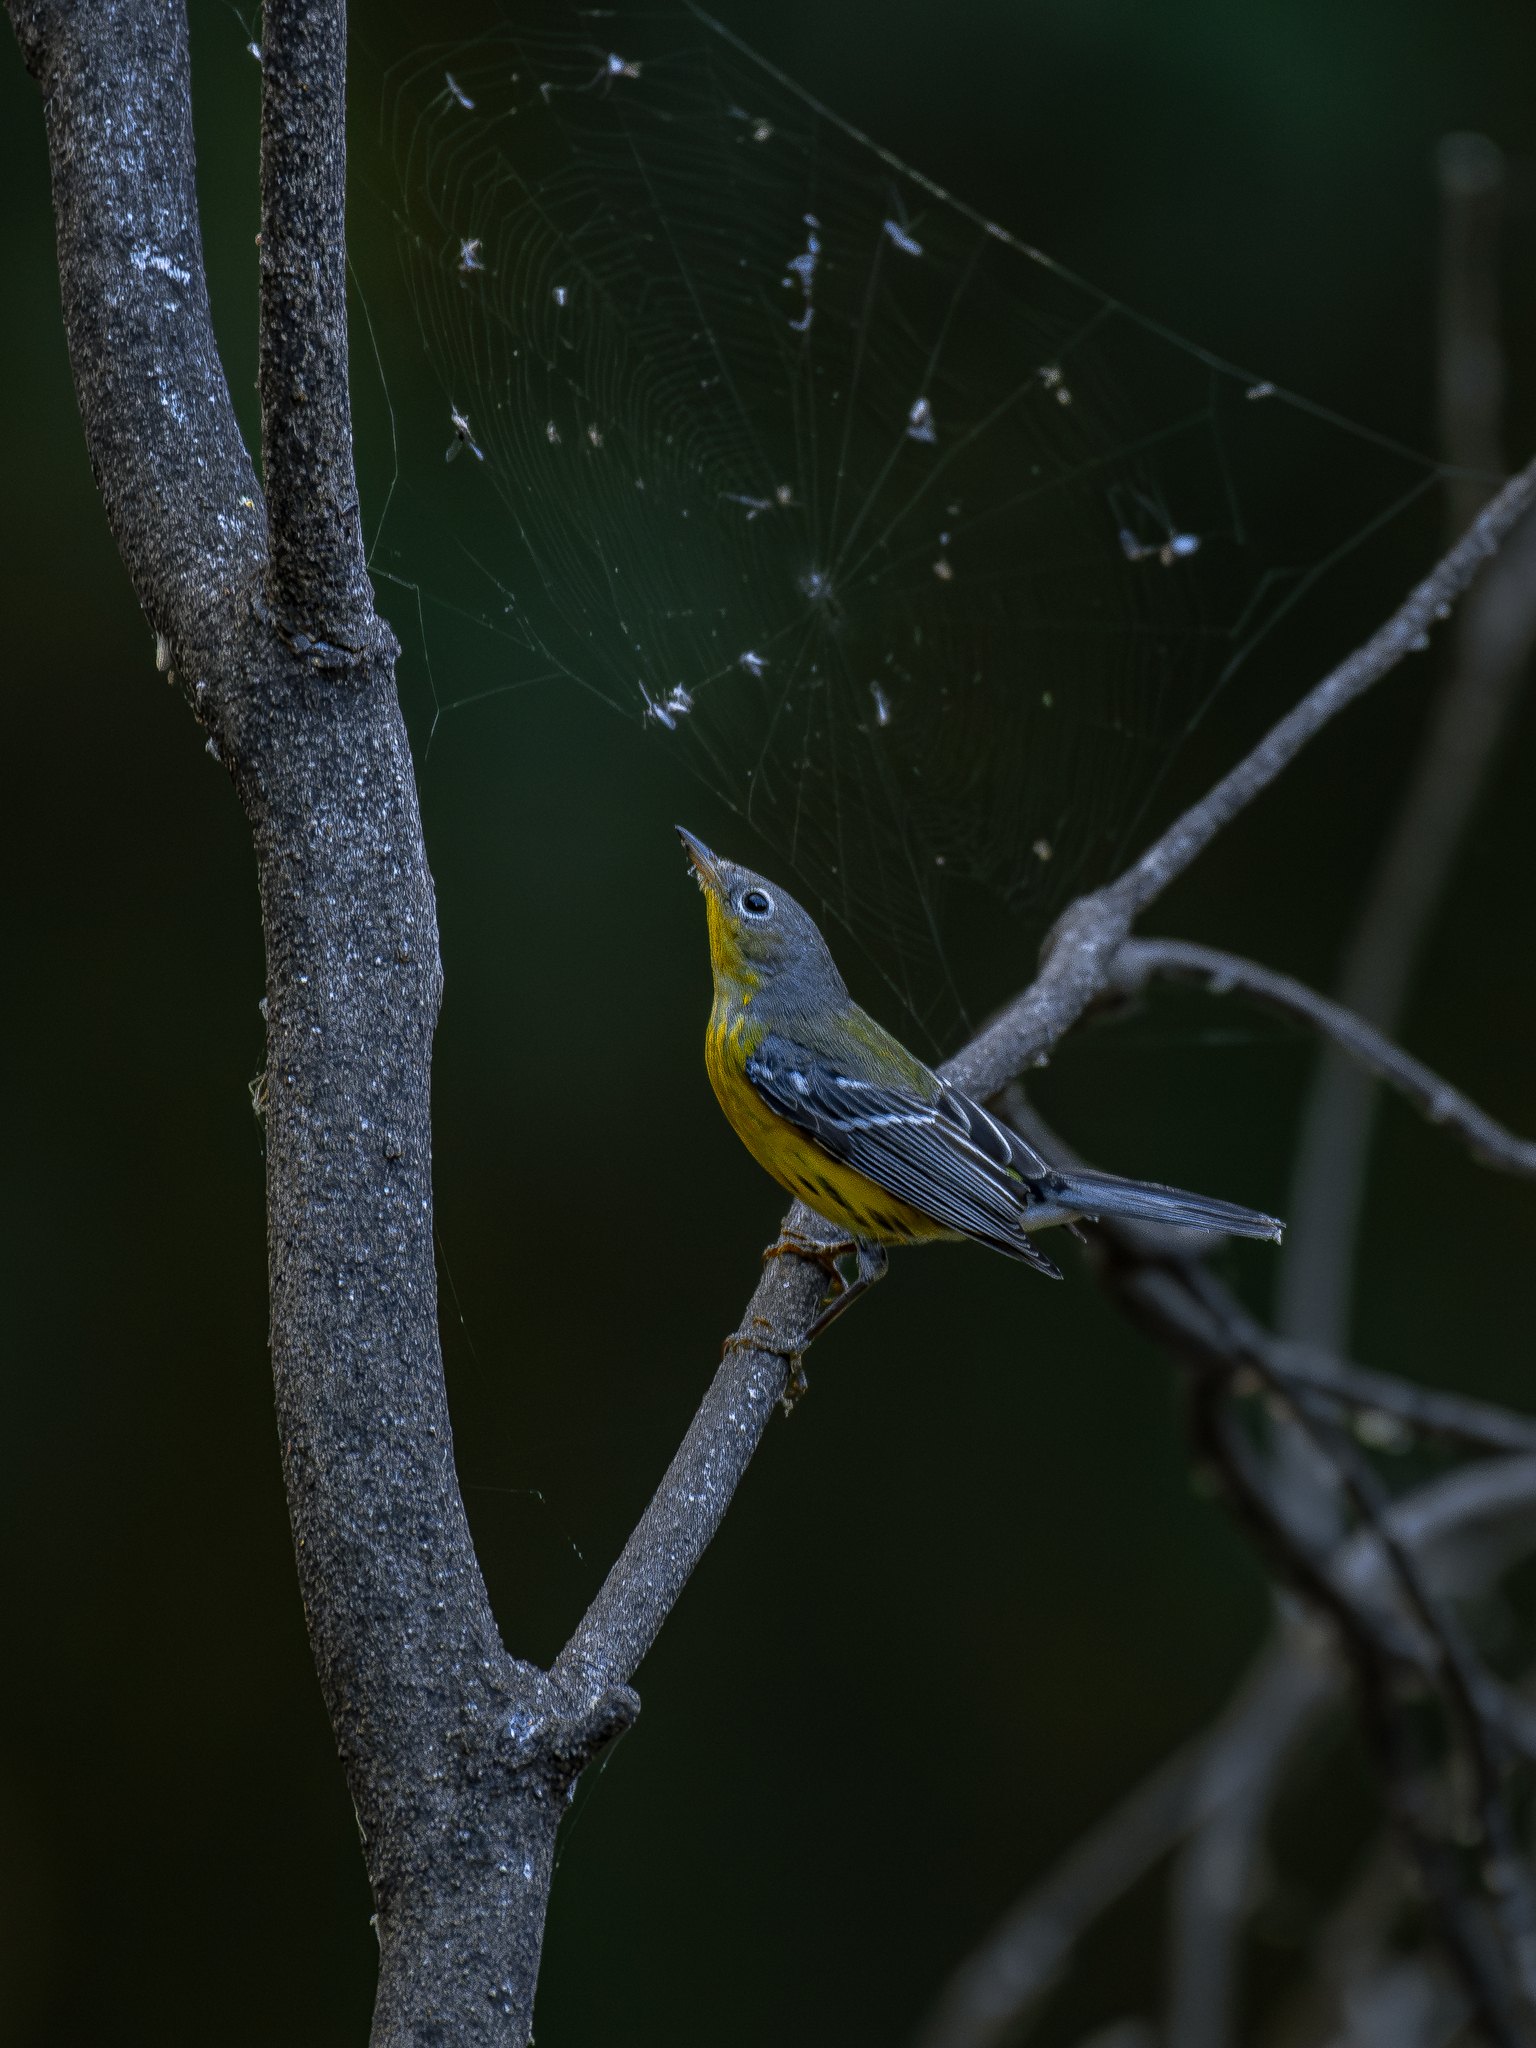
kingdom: Animalia
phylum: Chordata
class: Aves
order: Passeriformes
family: Parulidae
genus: Setophaga
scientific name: Setophaga magnolia
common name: Magnolia warbler
